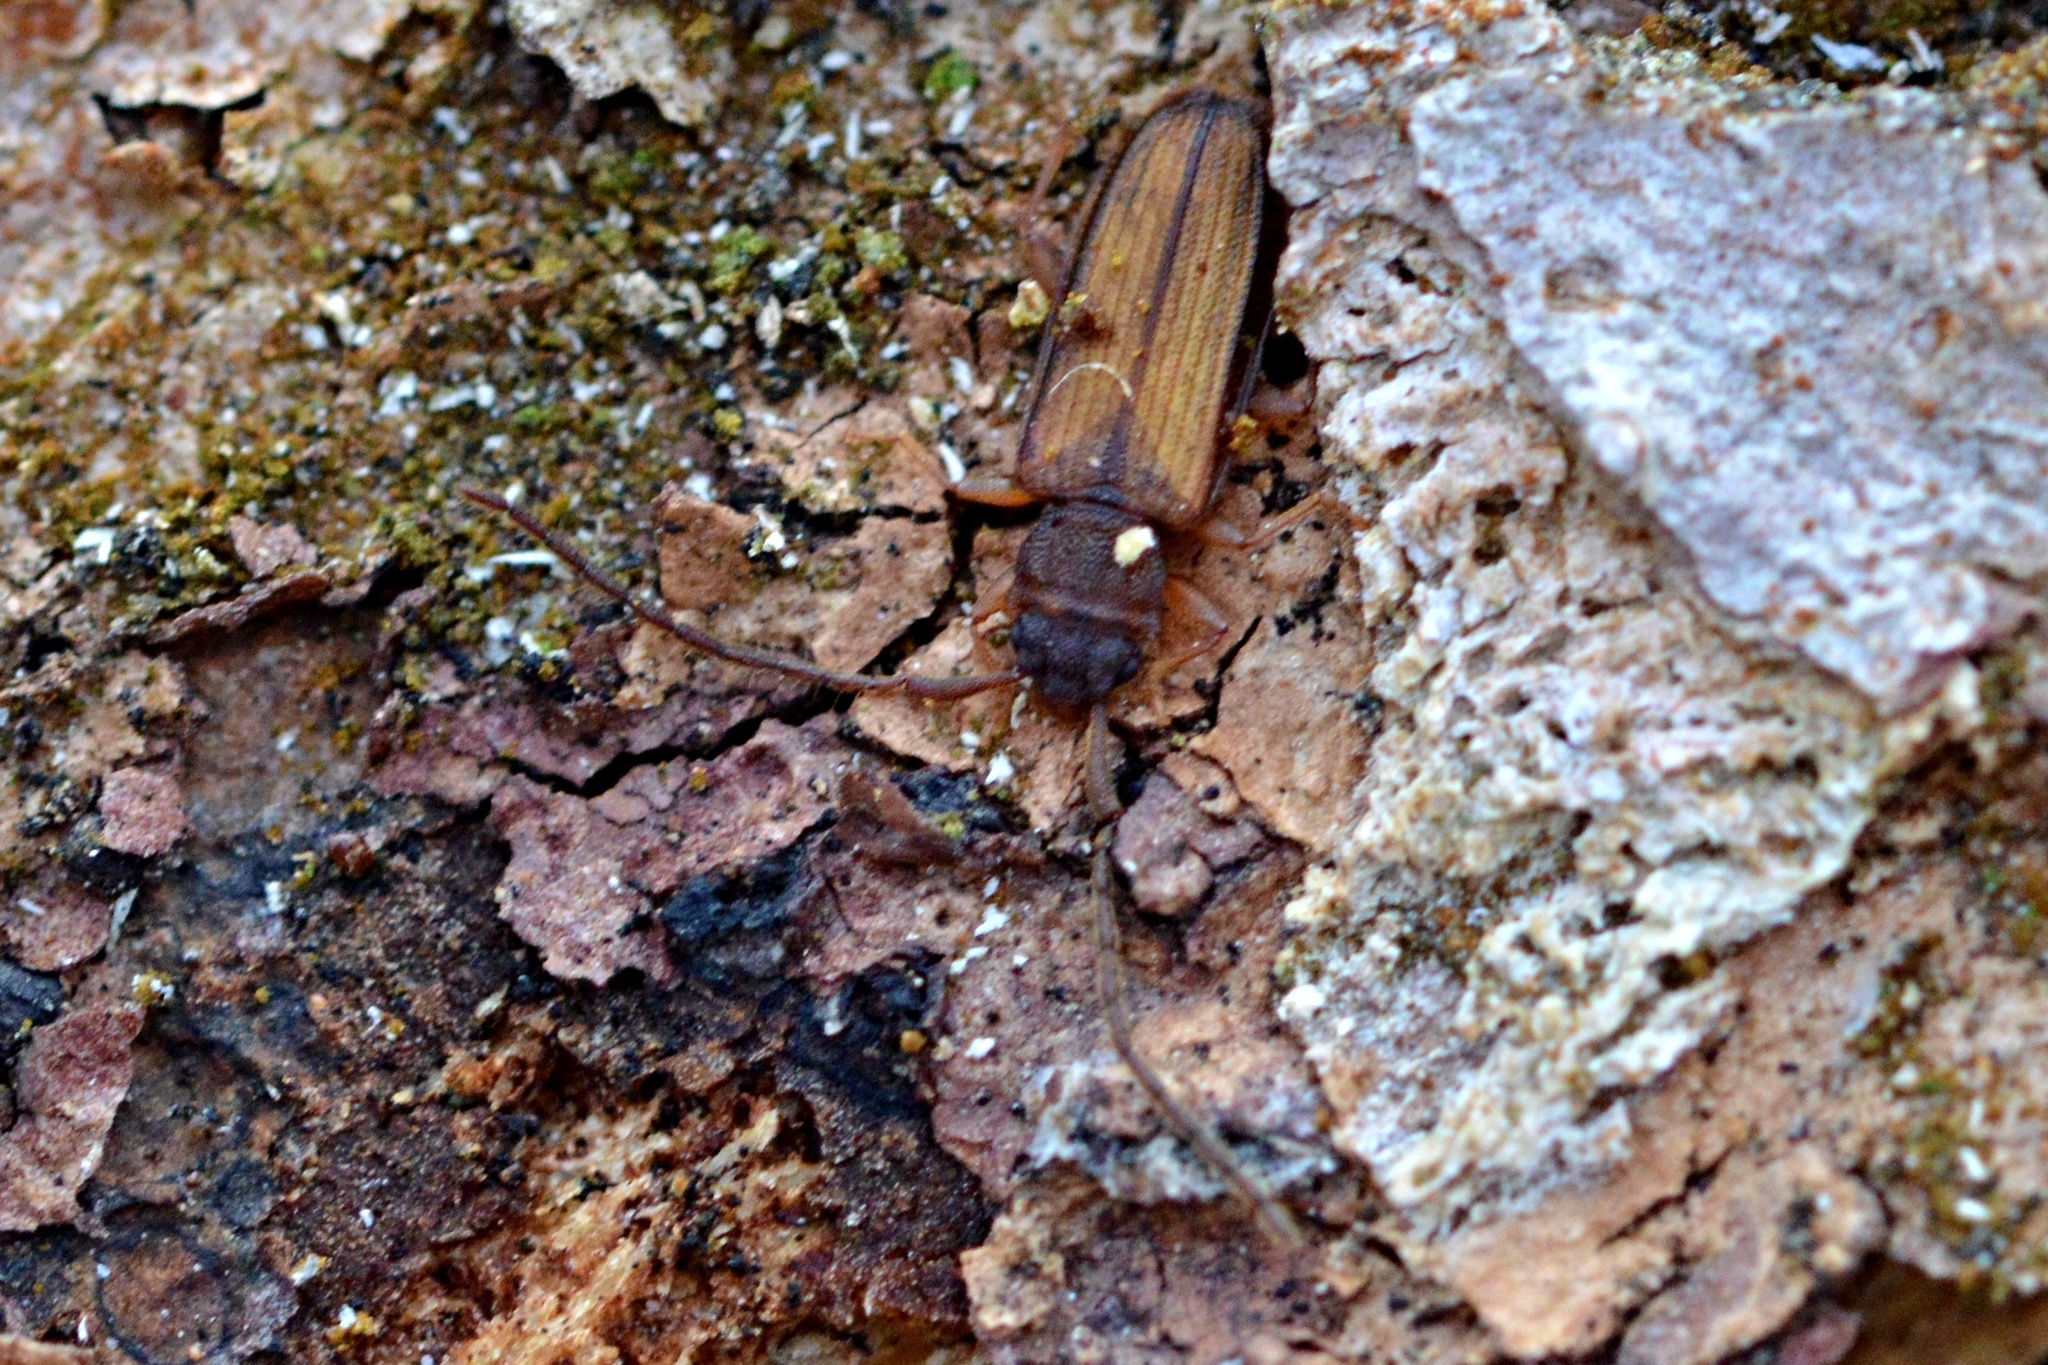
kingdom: Animalia
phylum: Arthropoda
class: Insecta
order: Coleoptera
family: Silvanidae
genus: Uleiota
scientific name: Uleiota planatus
